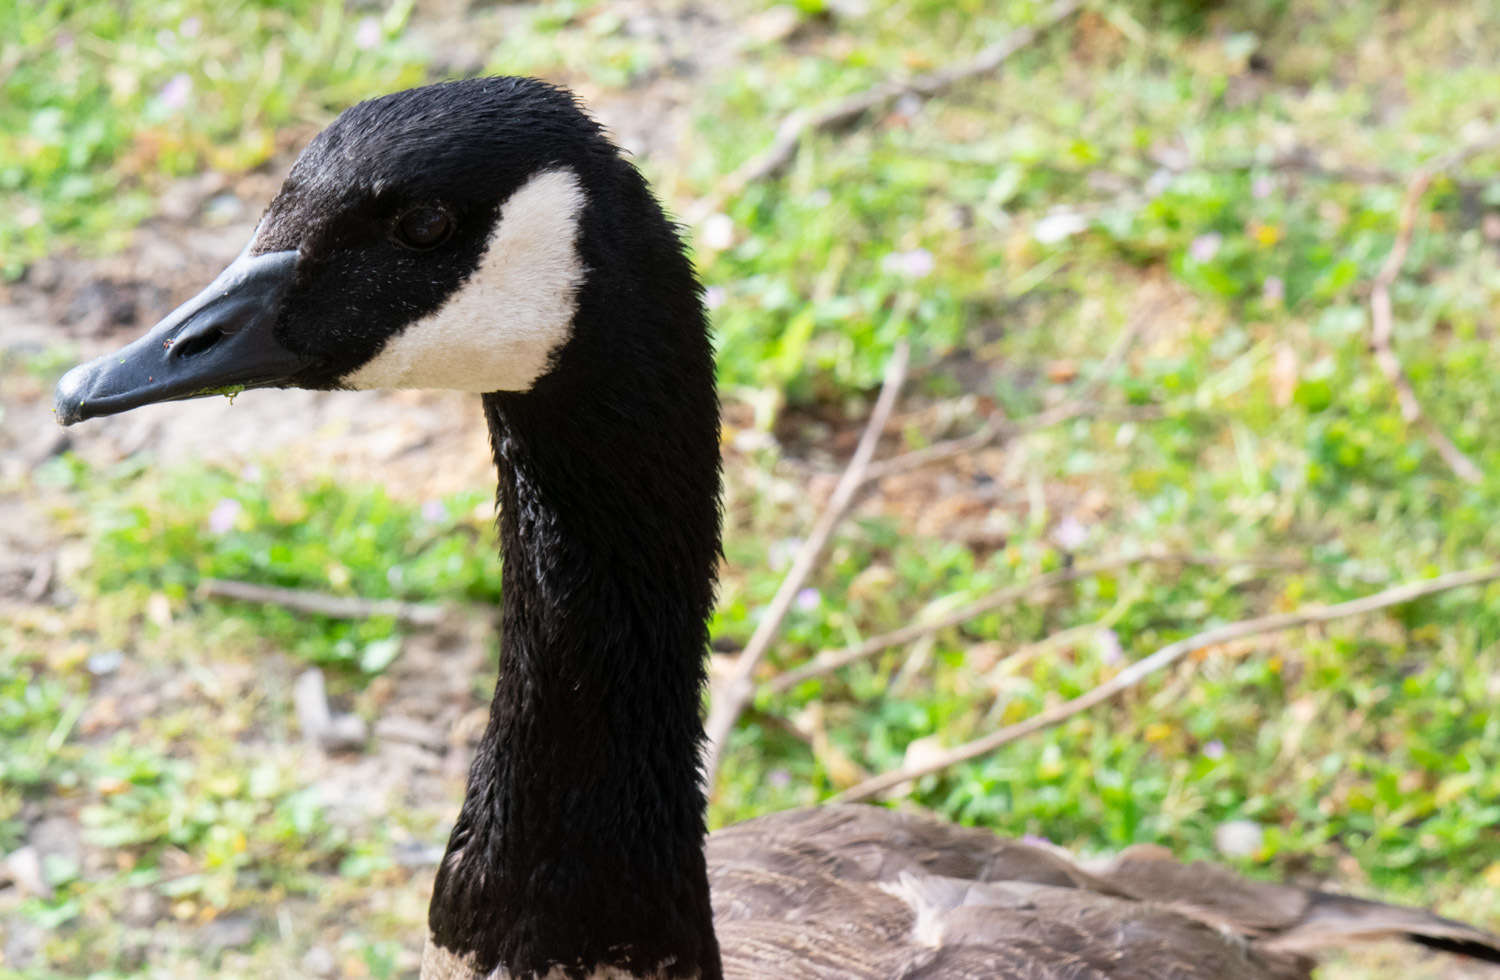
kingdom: Animalia
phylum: Chordata
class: Aves
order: Anseriformes
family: Anatidae
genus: Branta
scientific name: Branta canadensis
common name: Canada goose
